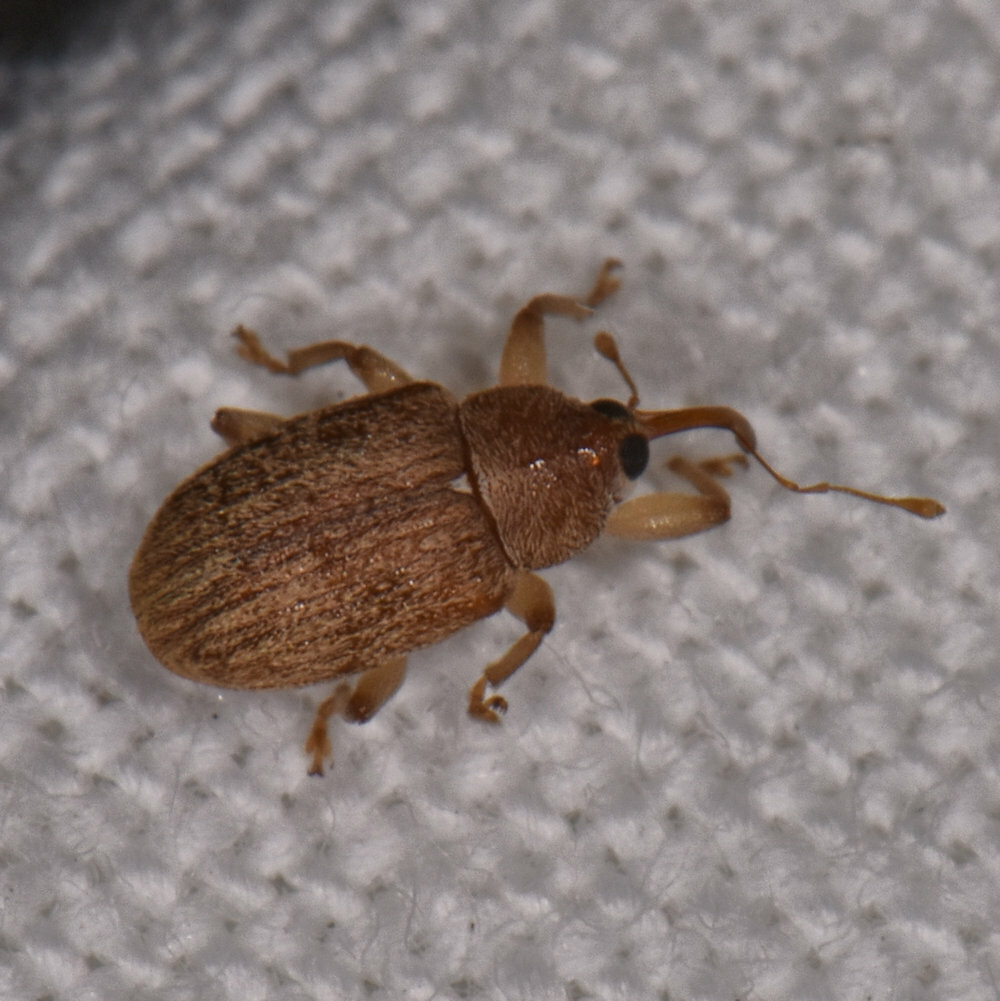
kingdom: Animalia
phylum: Arthropoda
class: Insecta
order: Coleoptera
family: Curculionidae
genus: Lignyodes
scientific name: Lignyodes helvolus
